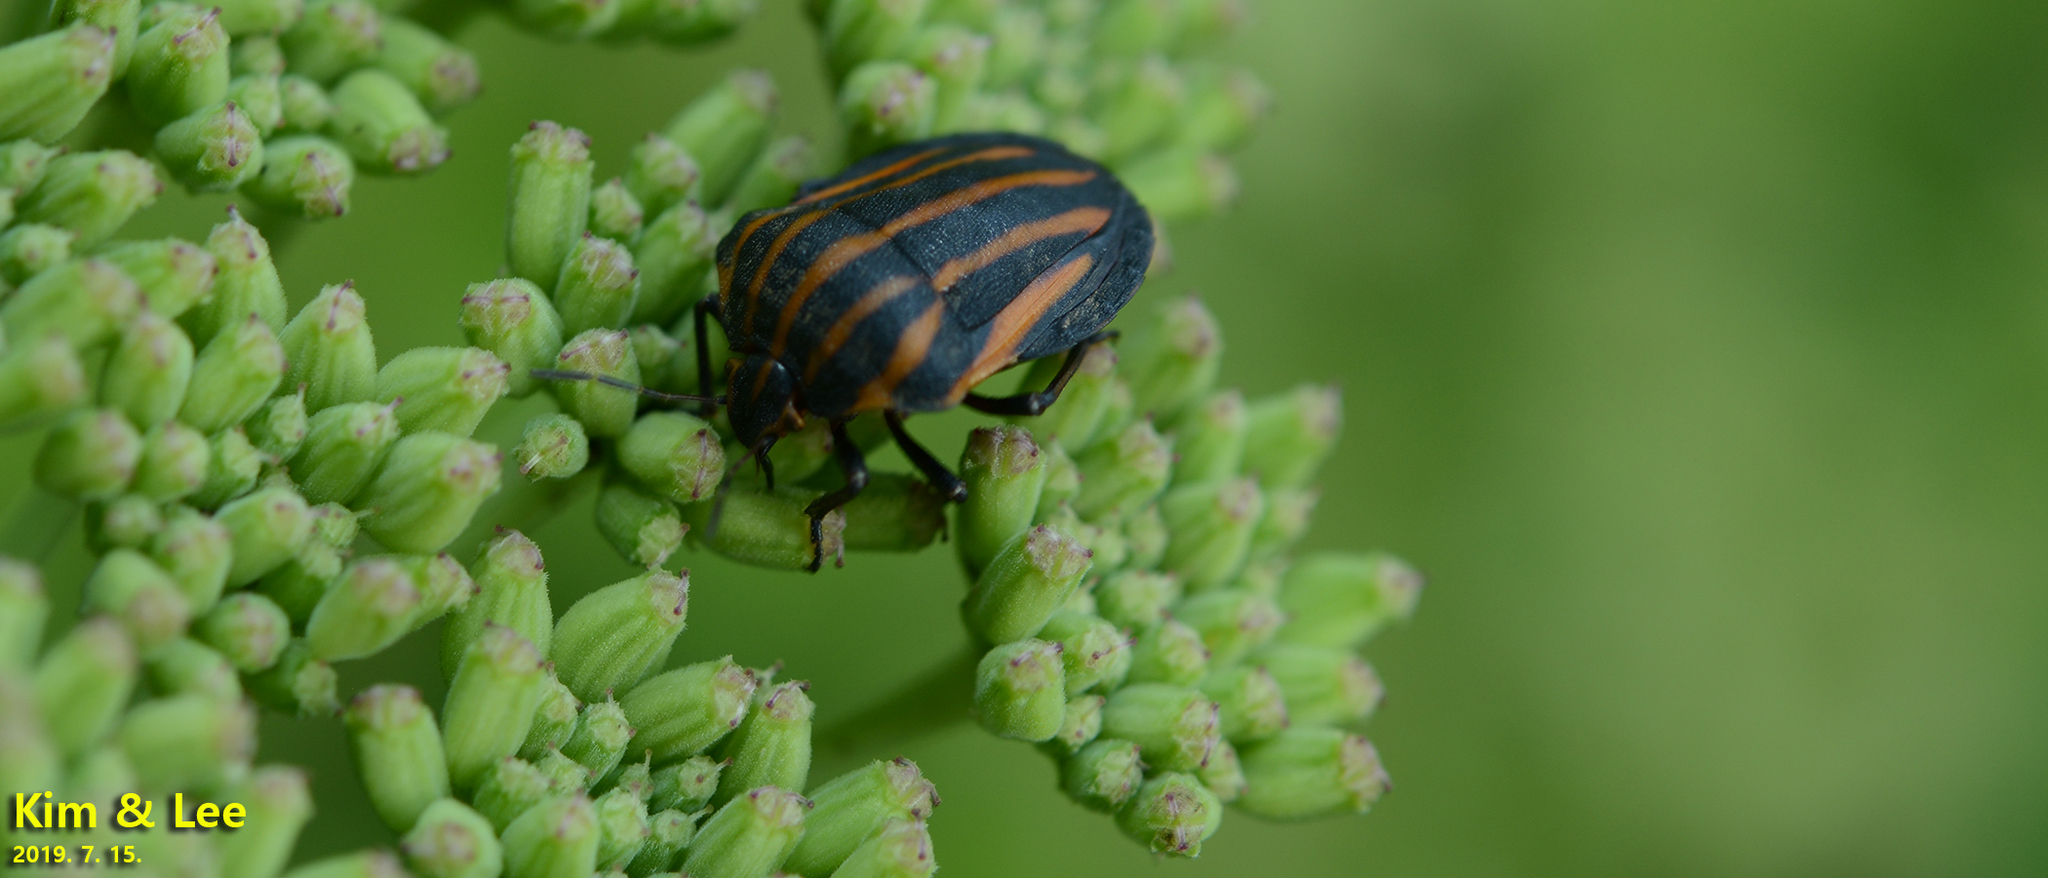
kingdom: Animalia
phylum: Arthropoda
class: Insecta
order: Hemiptera
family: Pentatomidae
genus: Graphosoma
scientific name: Graphosoma rubrolineatum
